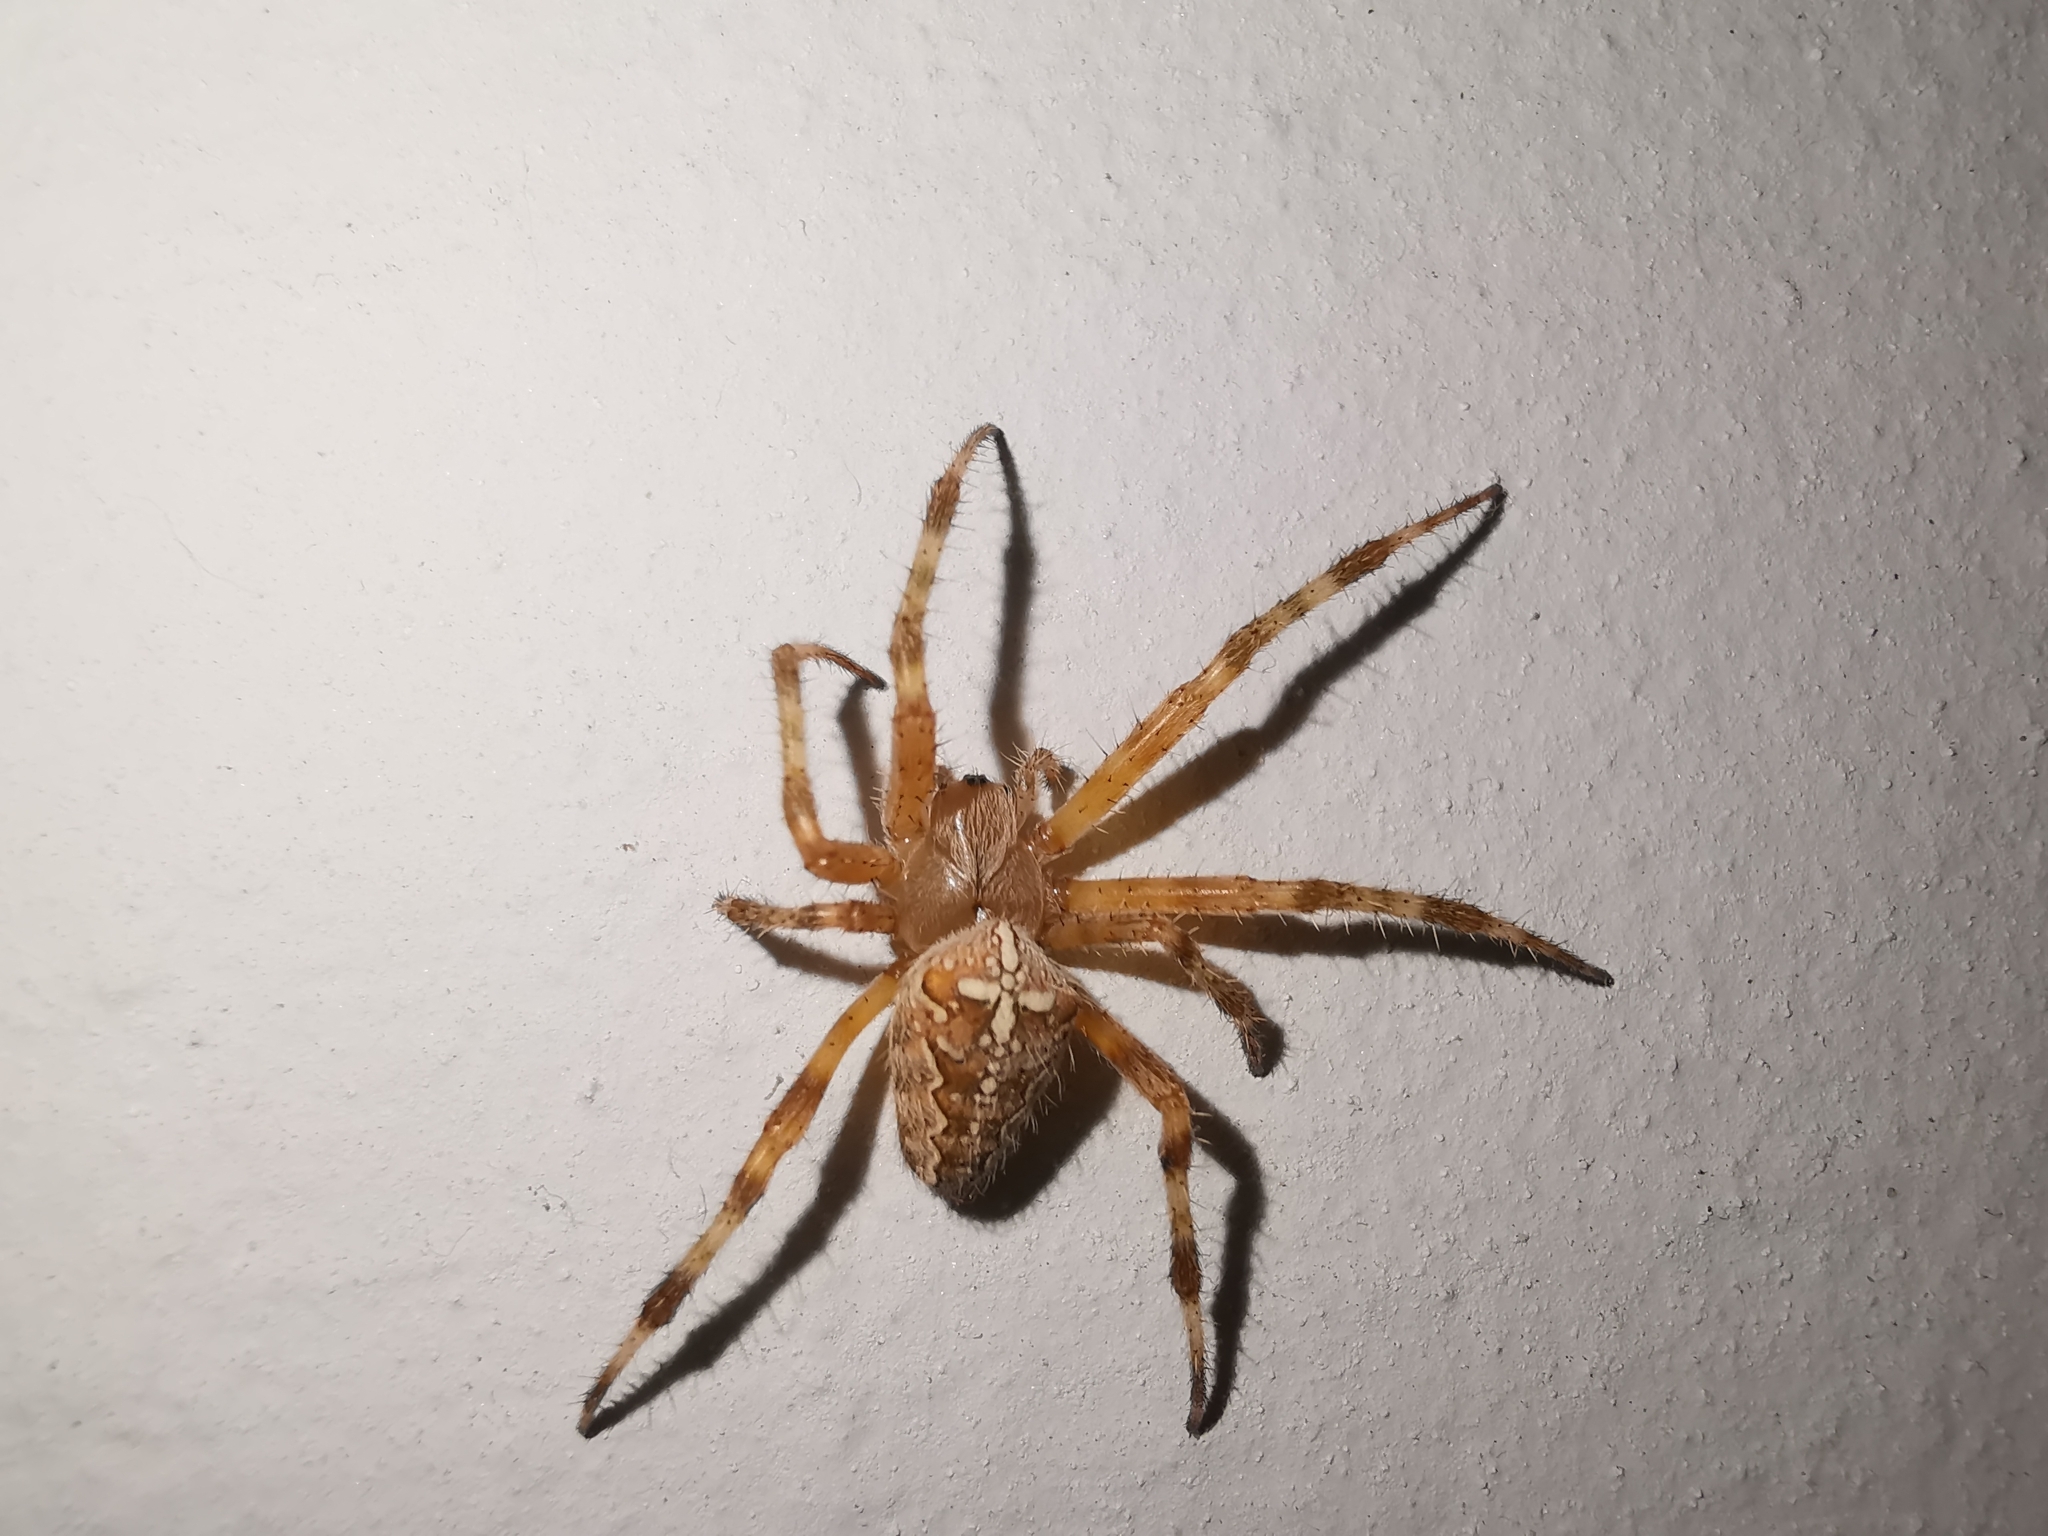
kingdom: Animalia
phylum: Arthropoda
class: Arachnida
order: Araneae
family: Araneidae
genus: Araneus
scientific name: Araneus diadematus
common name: Cross orbweaver
